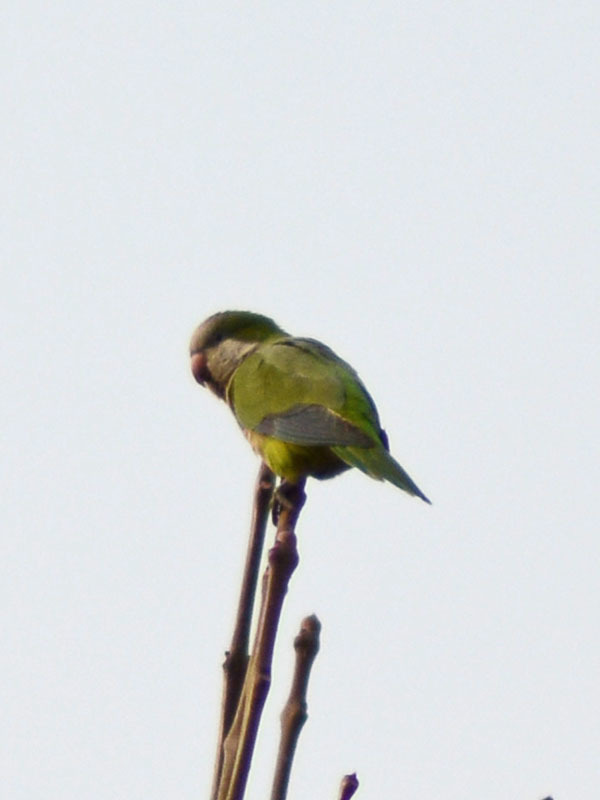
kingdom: Animalia
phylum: Chordata
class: Aves
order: Psittaciformes
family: Psittacidae
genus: Myiopsitta
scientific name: Myiopsitta monachus
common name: Monk parakeet
